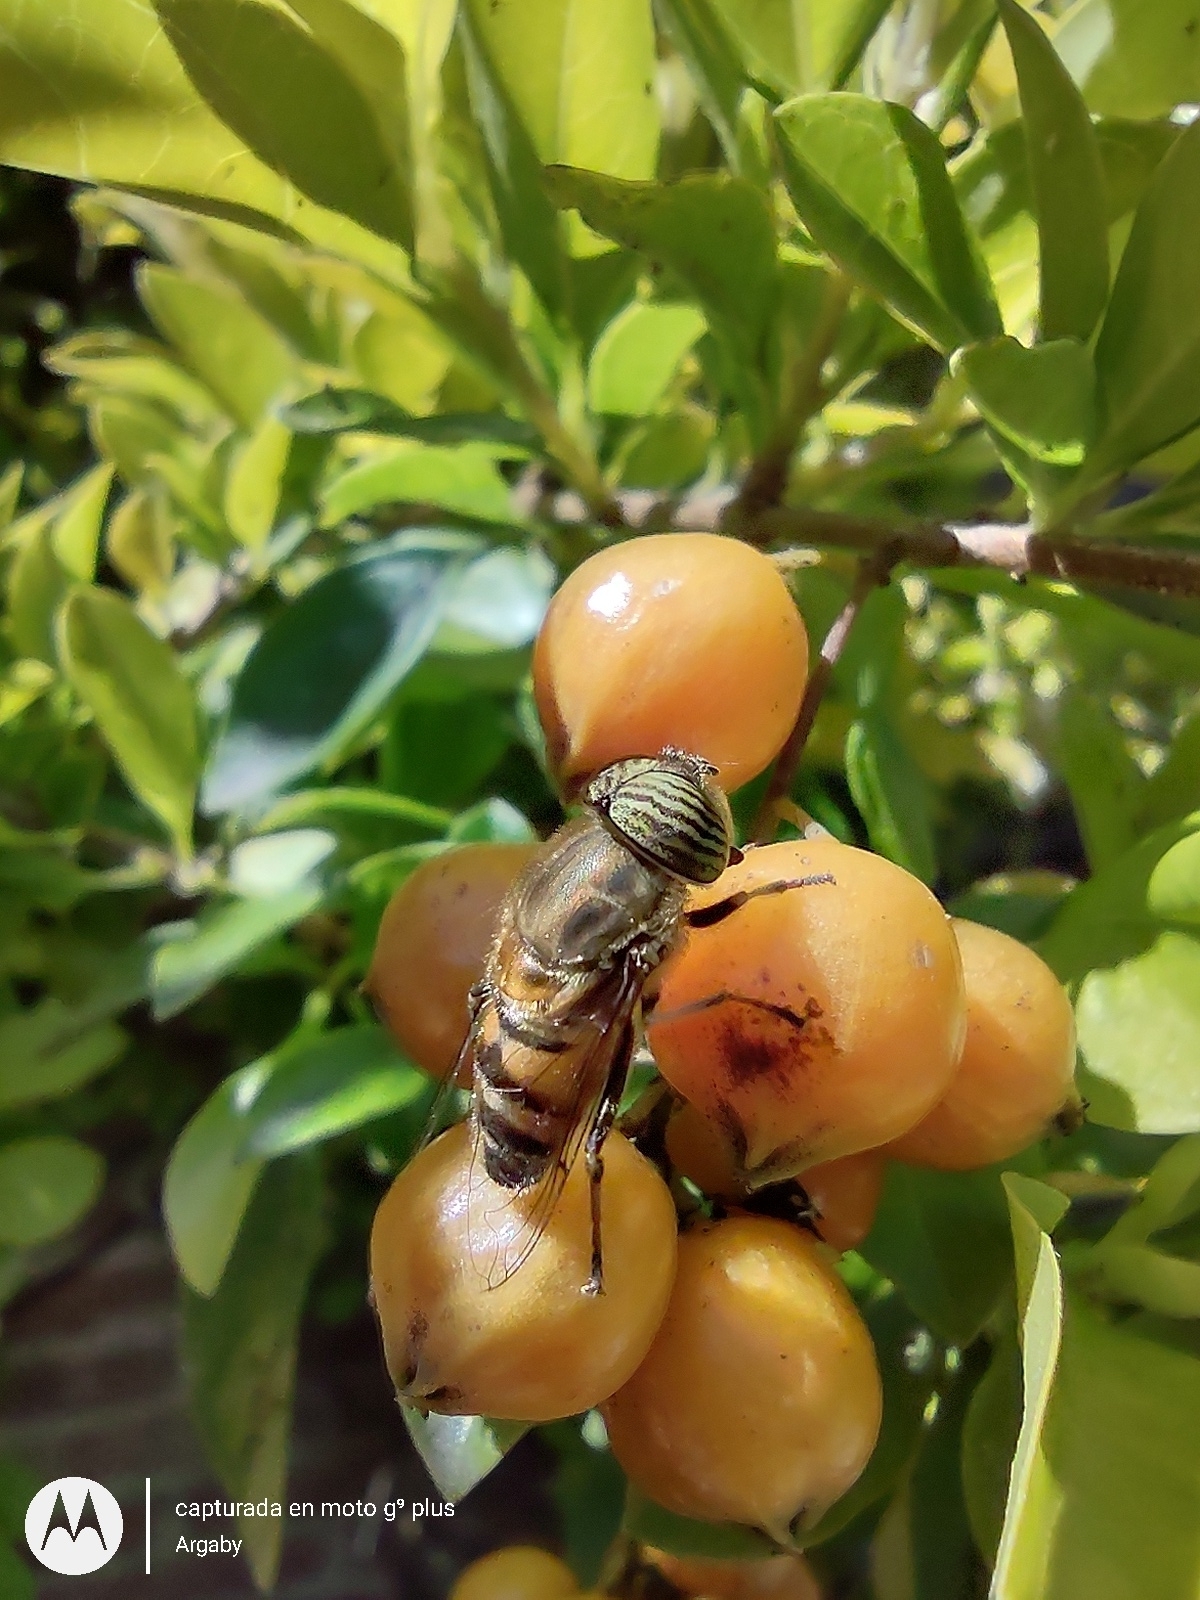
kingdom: Animalia
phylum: Arthropoda
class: Insecta
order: Diptera
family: Syrphidae
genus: Eristalinus
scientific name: Eristalinus taeniops
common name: Syrphid fly
